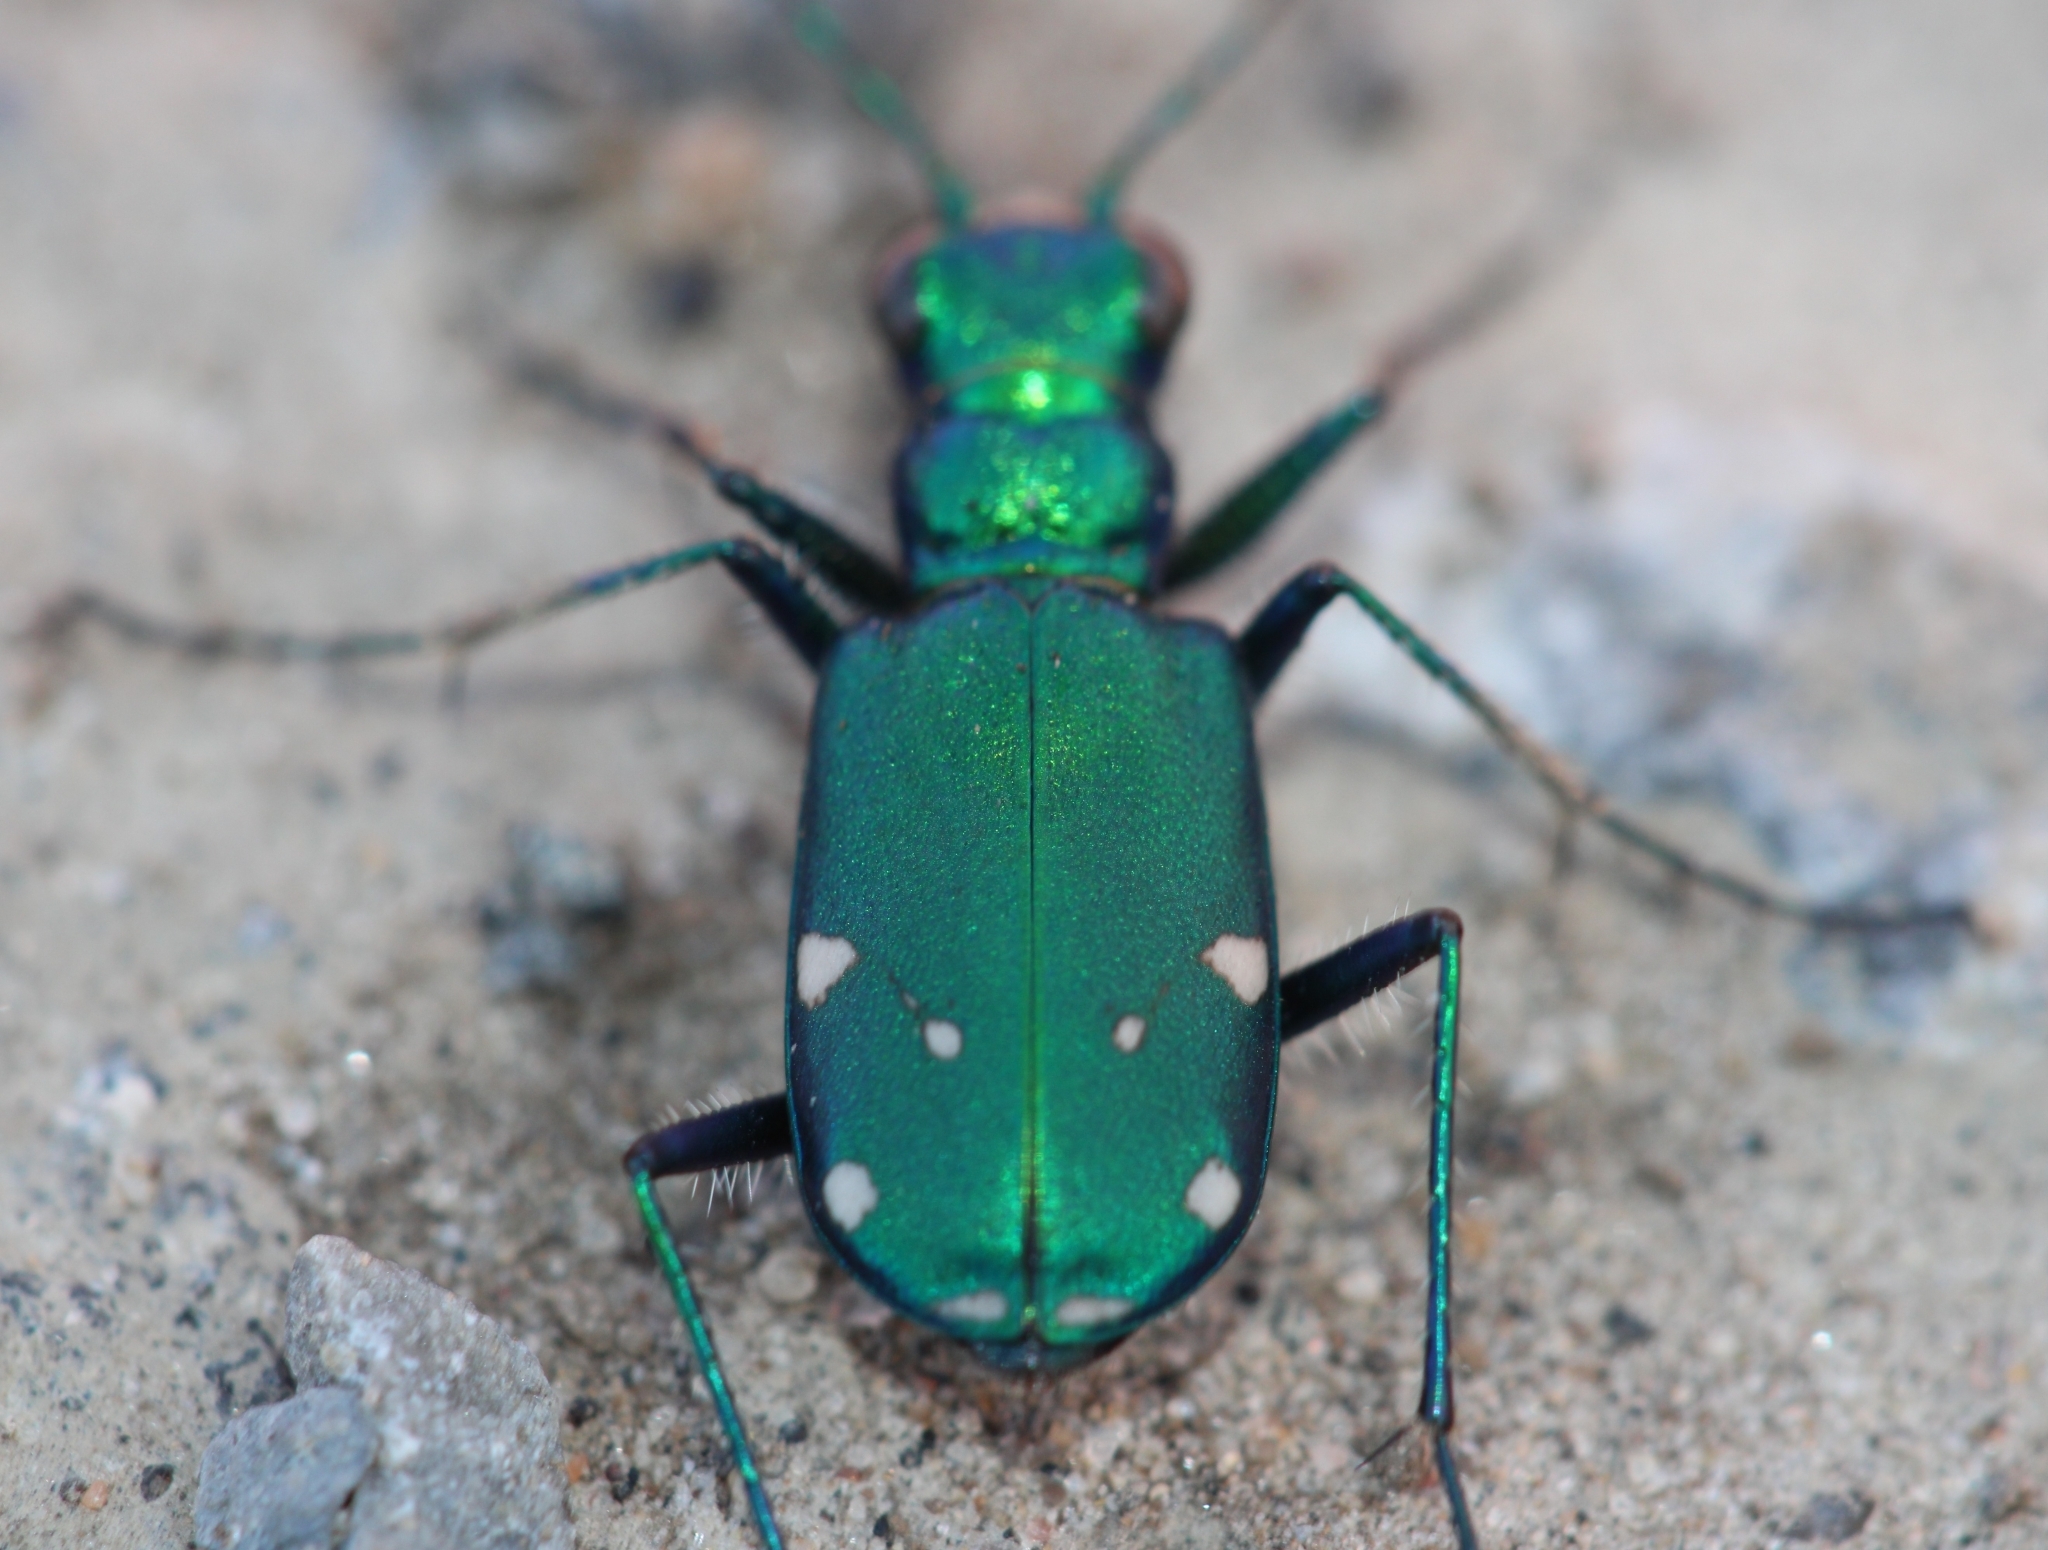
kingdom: Animalia
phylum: Arthropoda
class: Insecta
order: Coleoptera
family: Carabidae
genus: Cicindela
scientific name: Cicindela sexguttata
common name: Six-spotted tiger beetle
